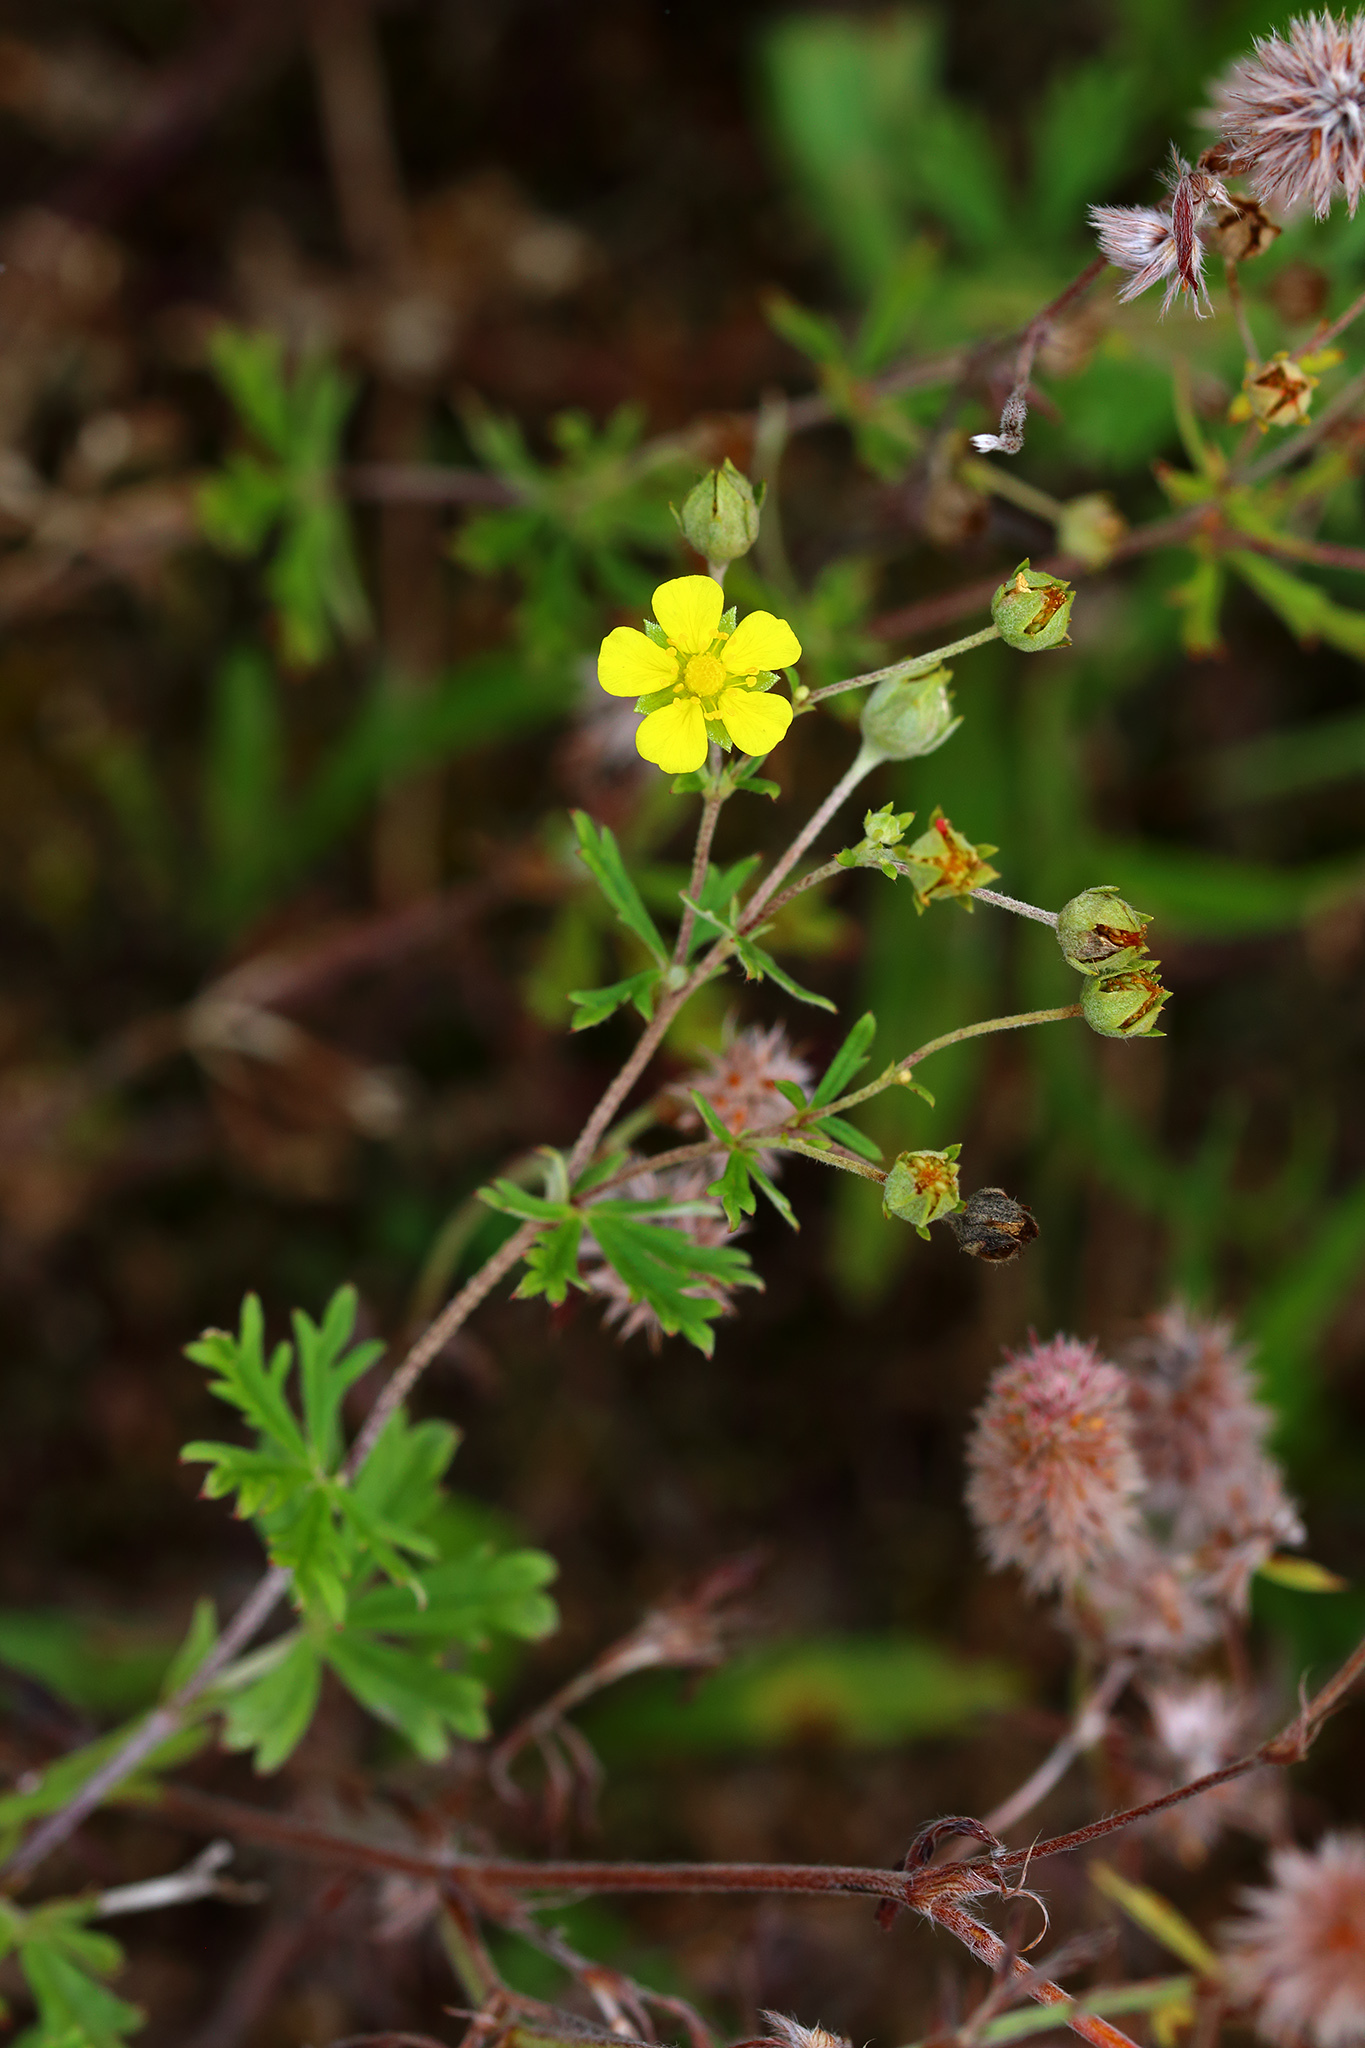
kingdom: Plantae
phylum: Tracheophyta
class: Magnoliopsida
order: Rosales
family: Rosaceae
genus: Potentilla
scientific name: Potentilla argentea
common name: Hoary cinquefoil
